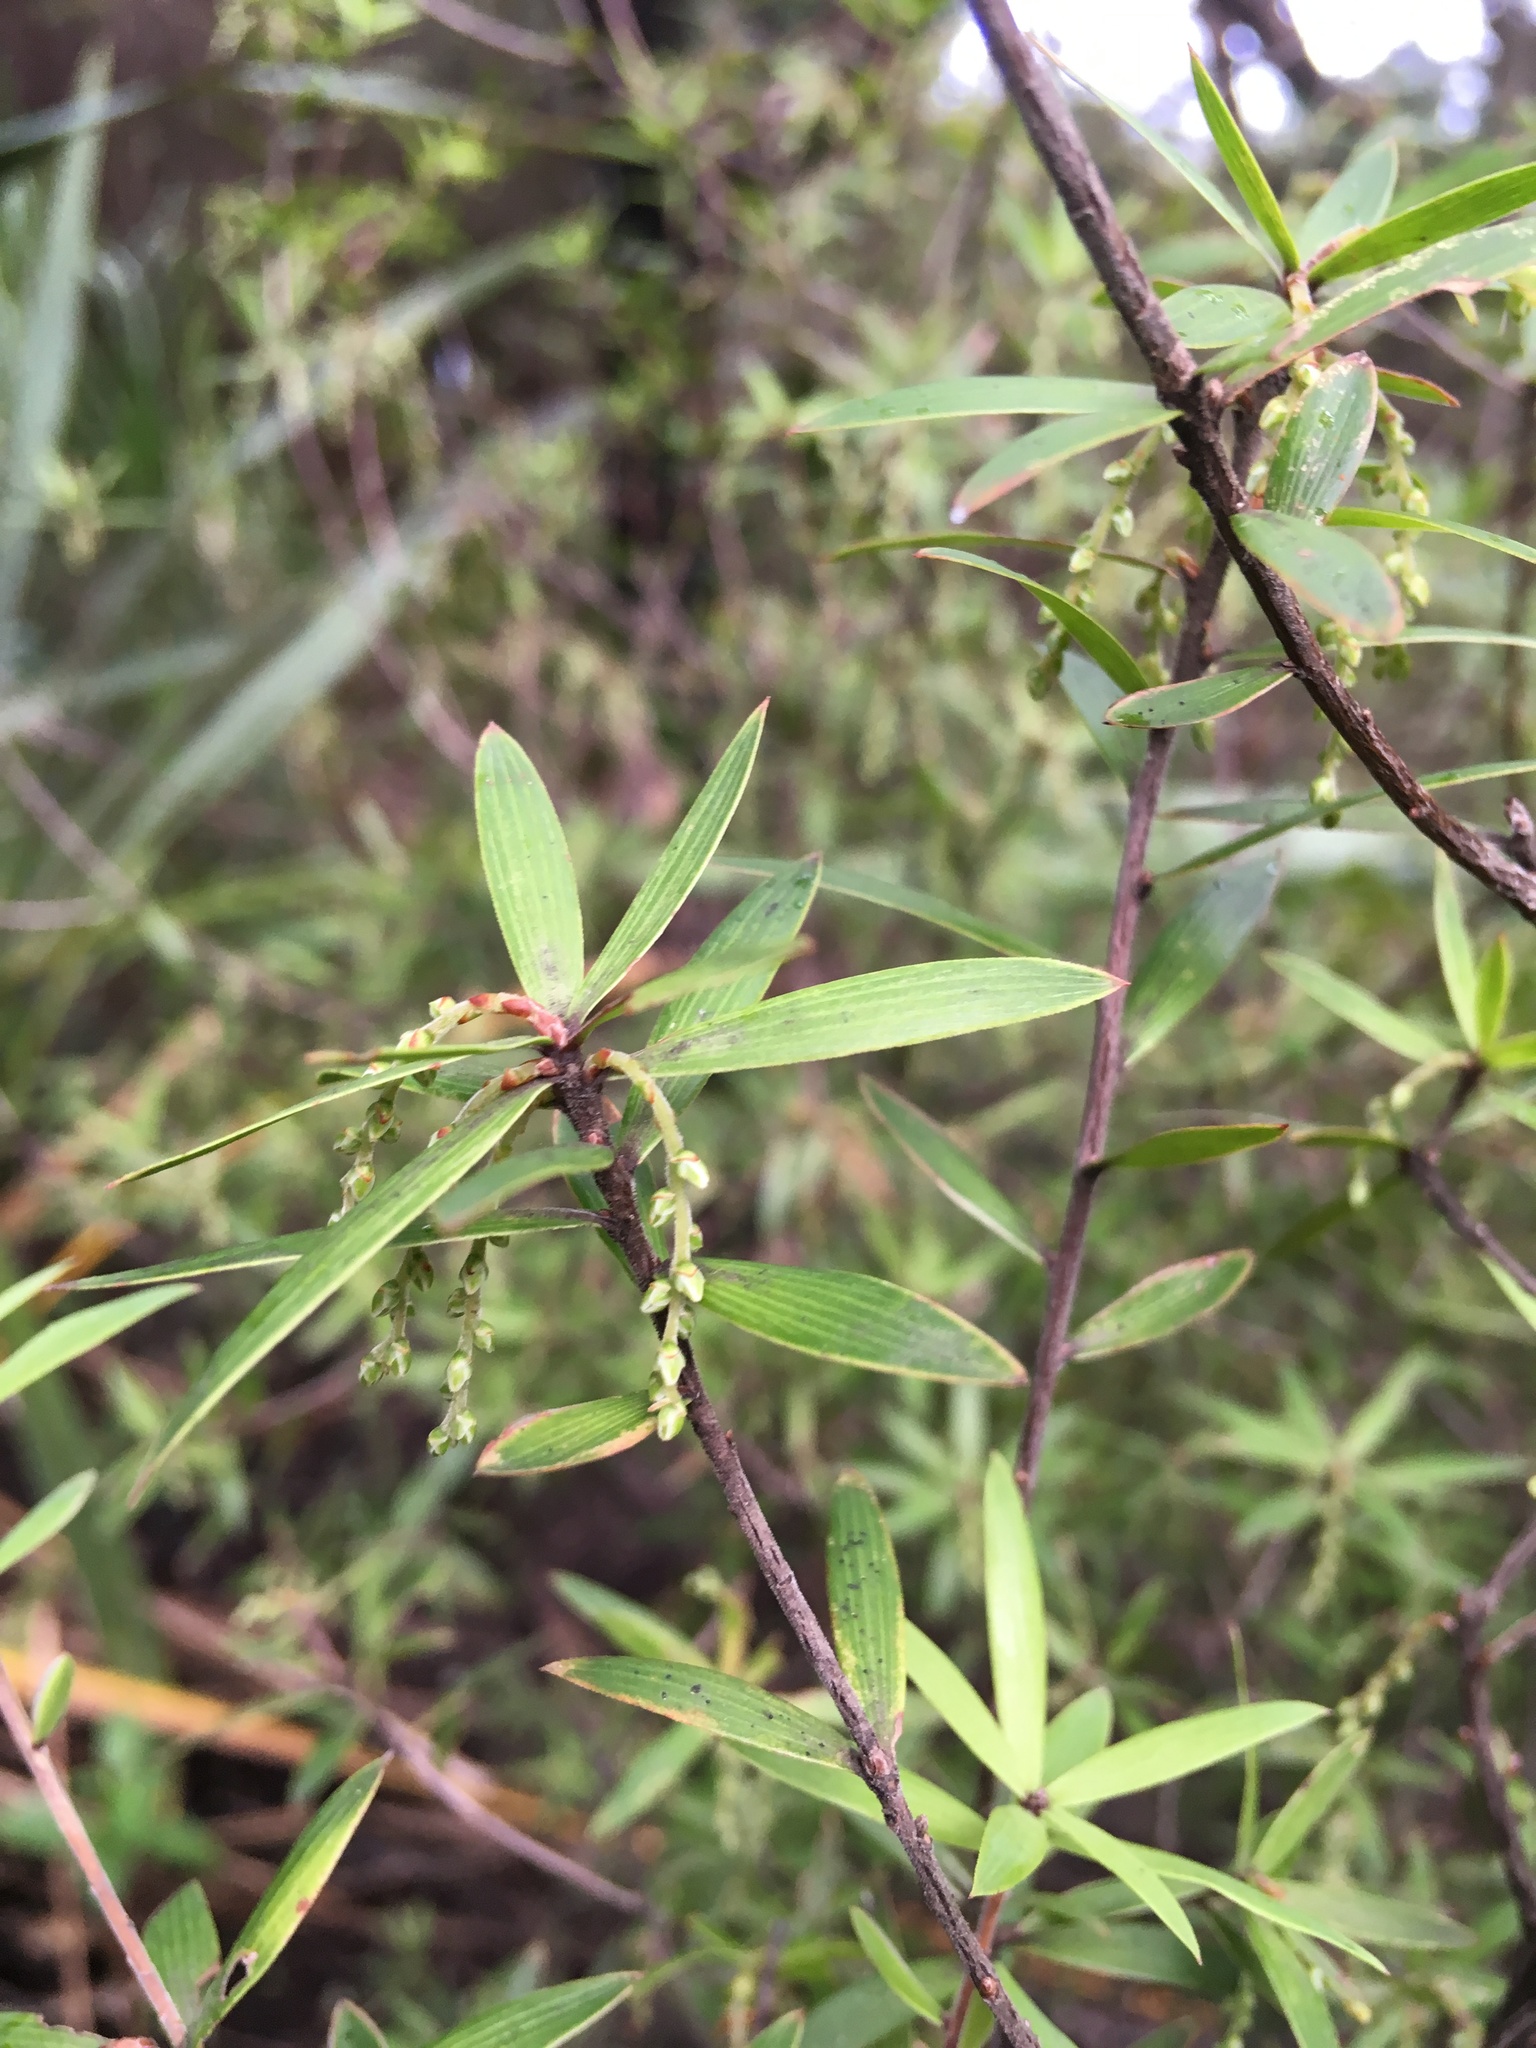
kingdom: Plantae
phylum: Tracheophyta
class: Magnoliopsida
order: Ericales
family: Ericaceae
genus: Leucopogon
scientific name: Leucopogon fasciculatus
